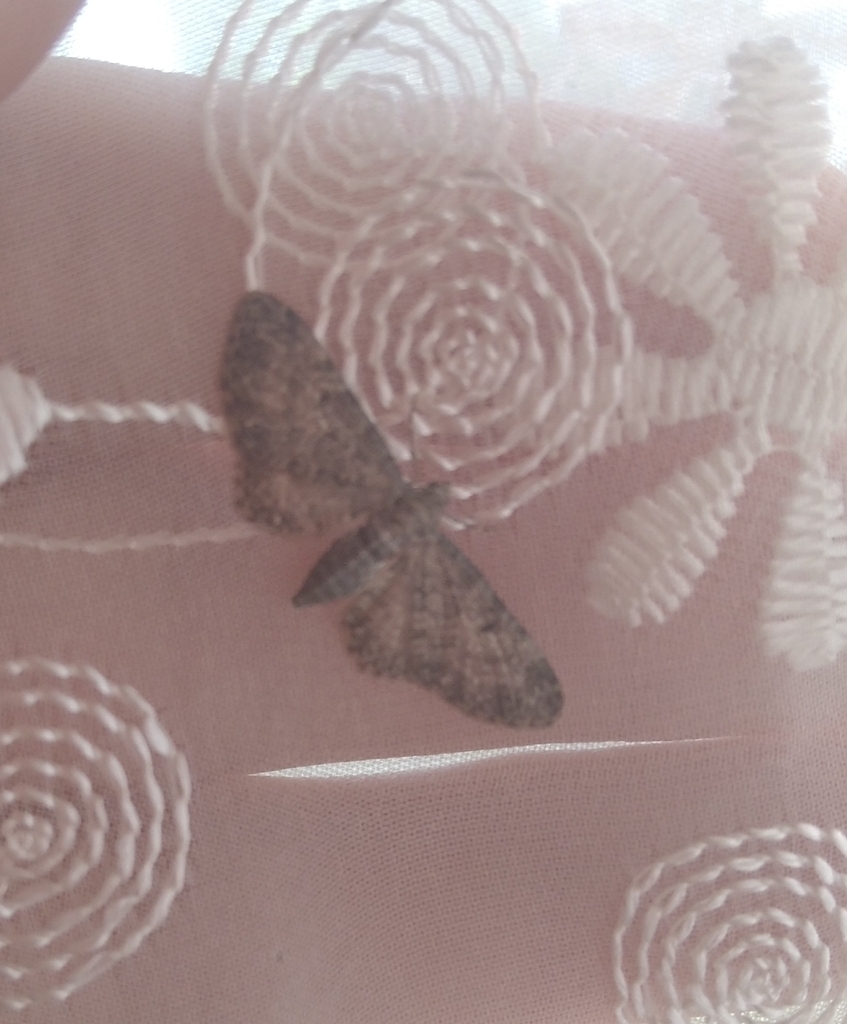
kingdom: Animalia
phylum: Arthropoda
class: Insecta
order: Lepidoptera
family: Geometridae
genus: Eupithecia
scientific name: Eupithecia subfuscata
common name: Grey pug
